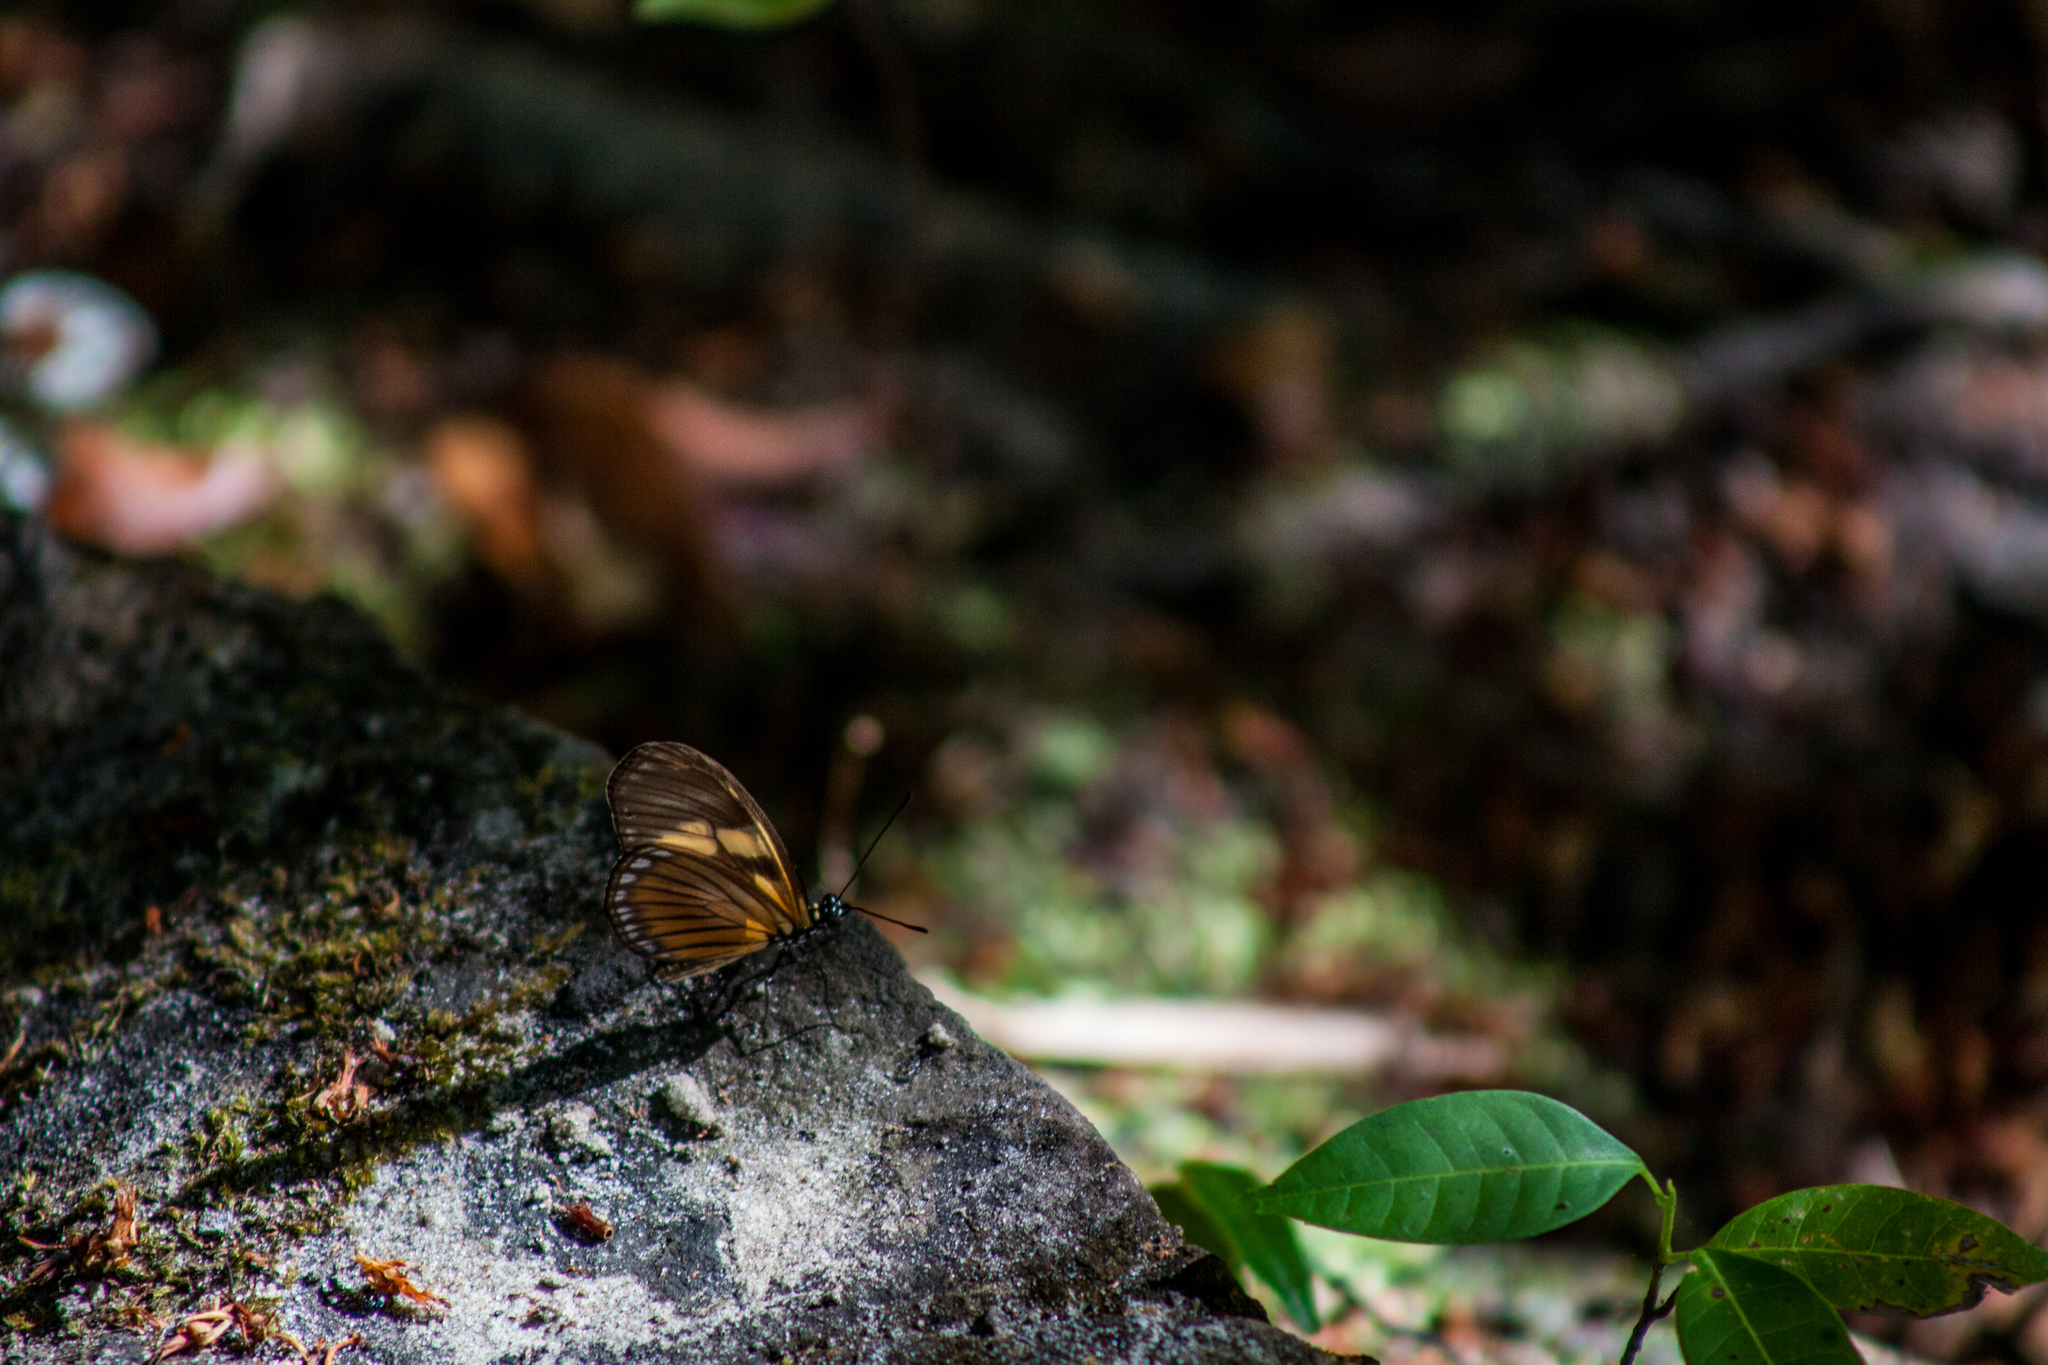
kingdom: Animalia
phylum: Arthropoda
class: Insecta
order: Lepidoptera
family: Nymphalidae
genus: Eueides
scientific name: Eueides vibilia
